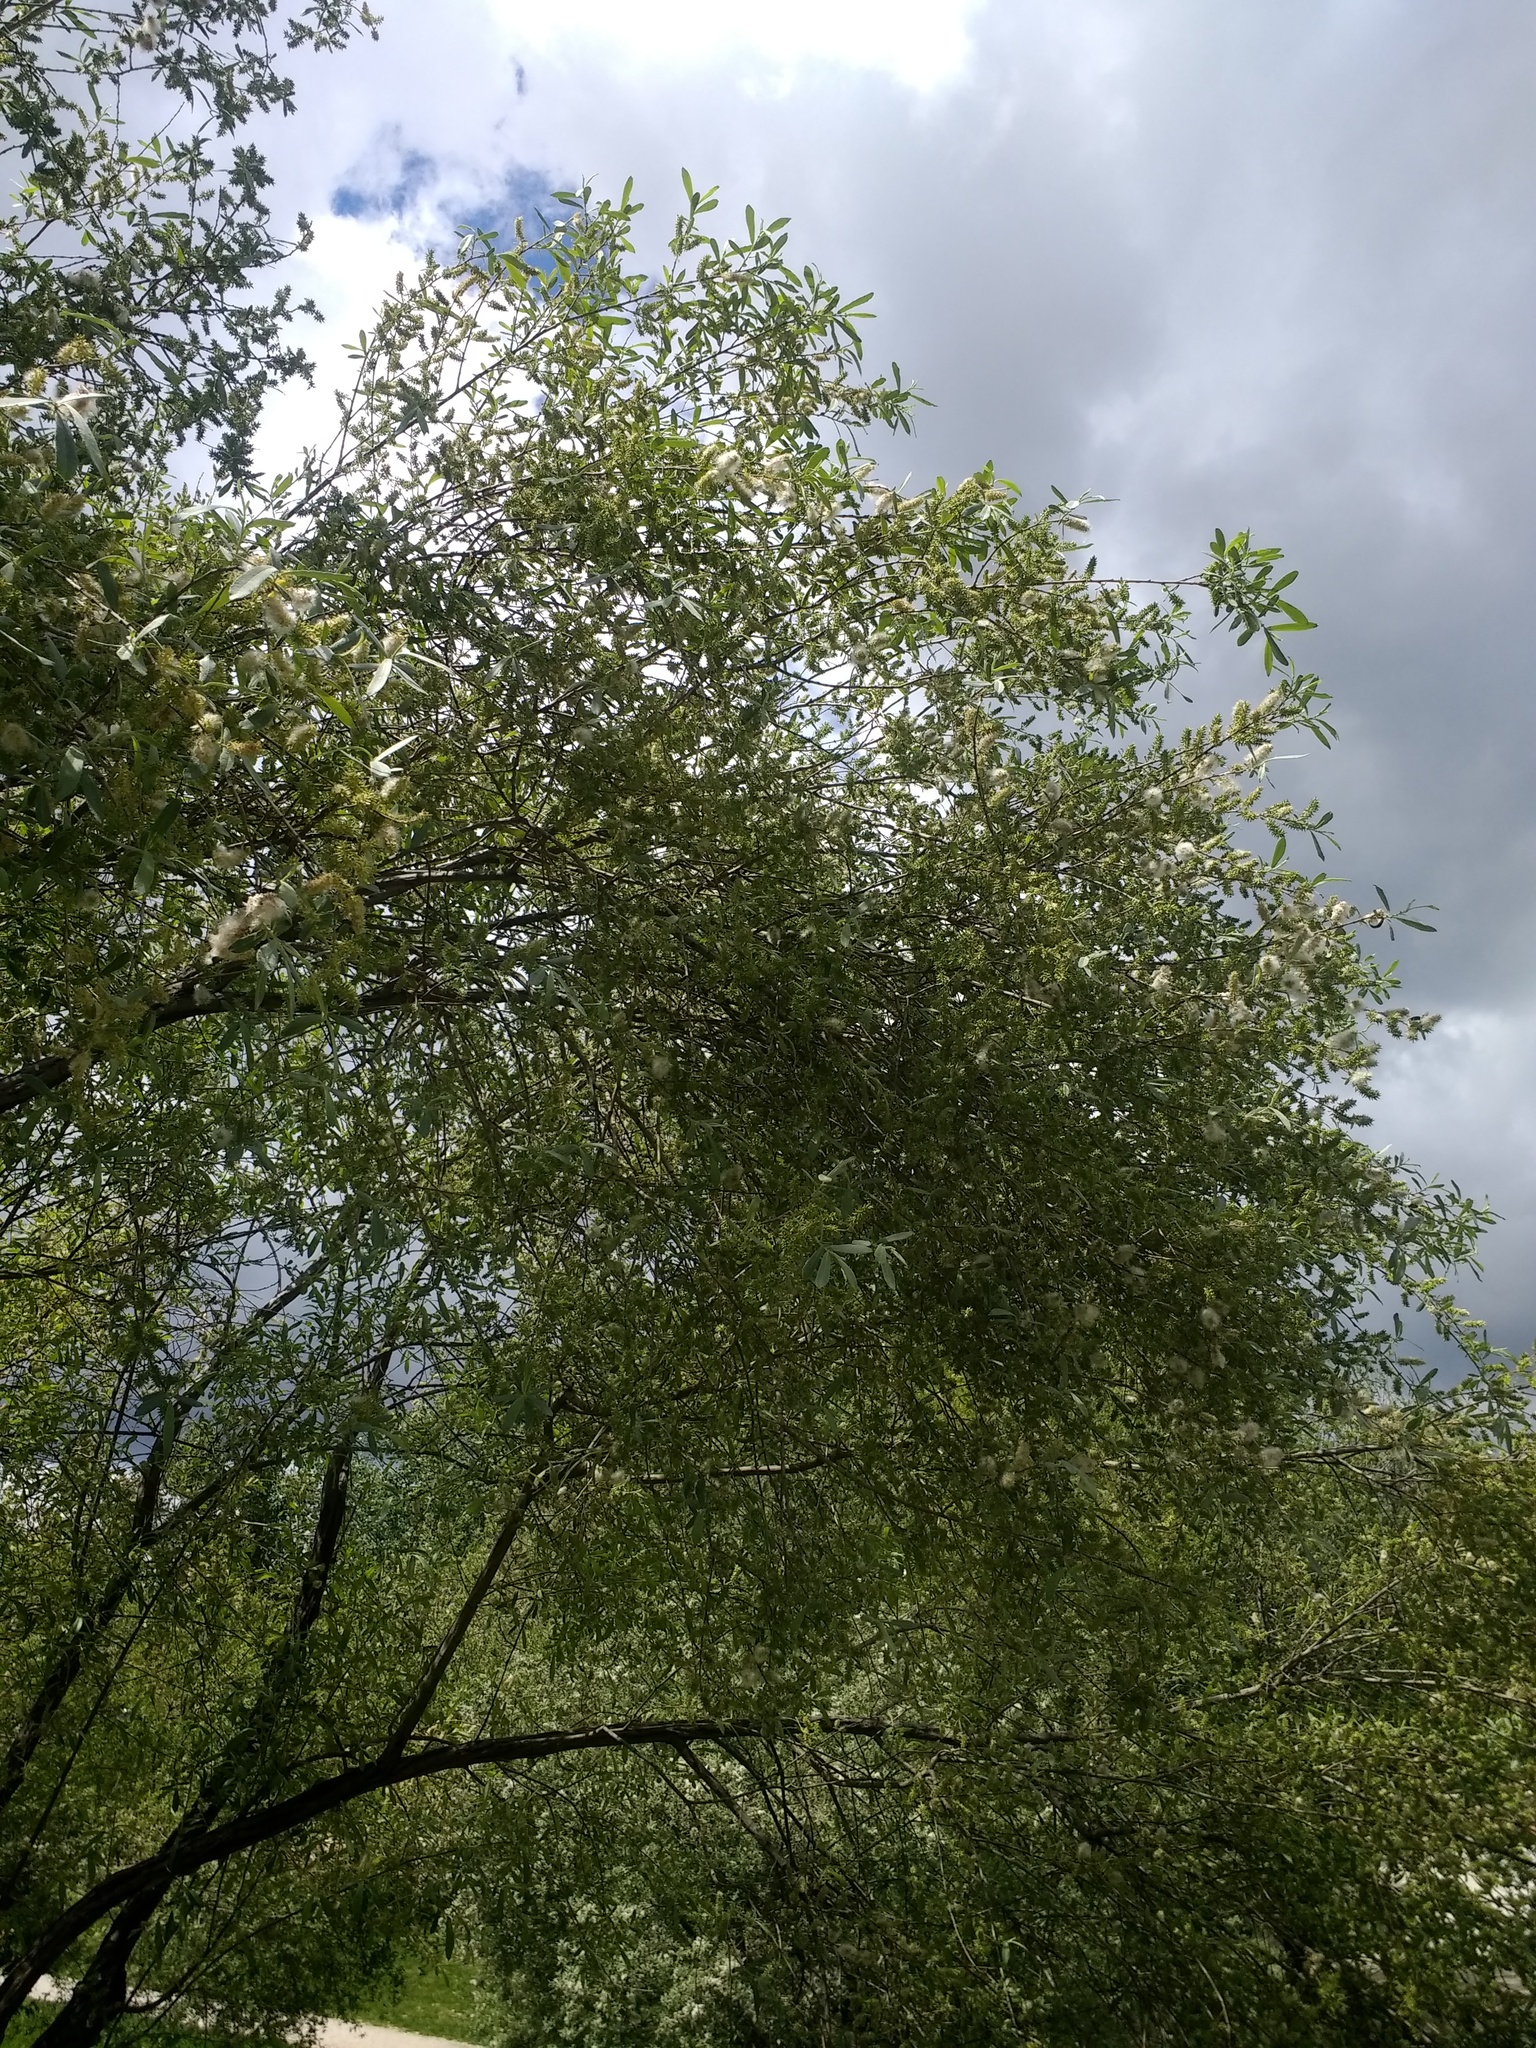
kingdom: Plantae
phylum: Tracheophyta
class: Magnoliopsida
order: Malpighiales
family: Salicaceae
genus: Salix
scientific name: Salix salviifolia
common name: Salvia-leaf willow
